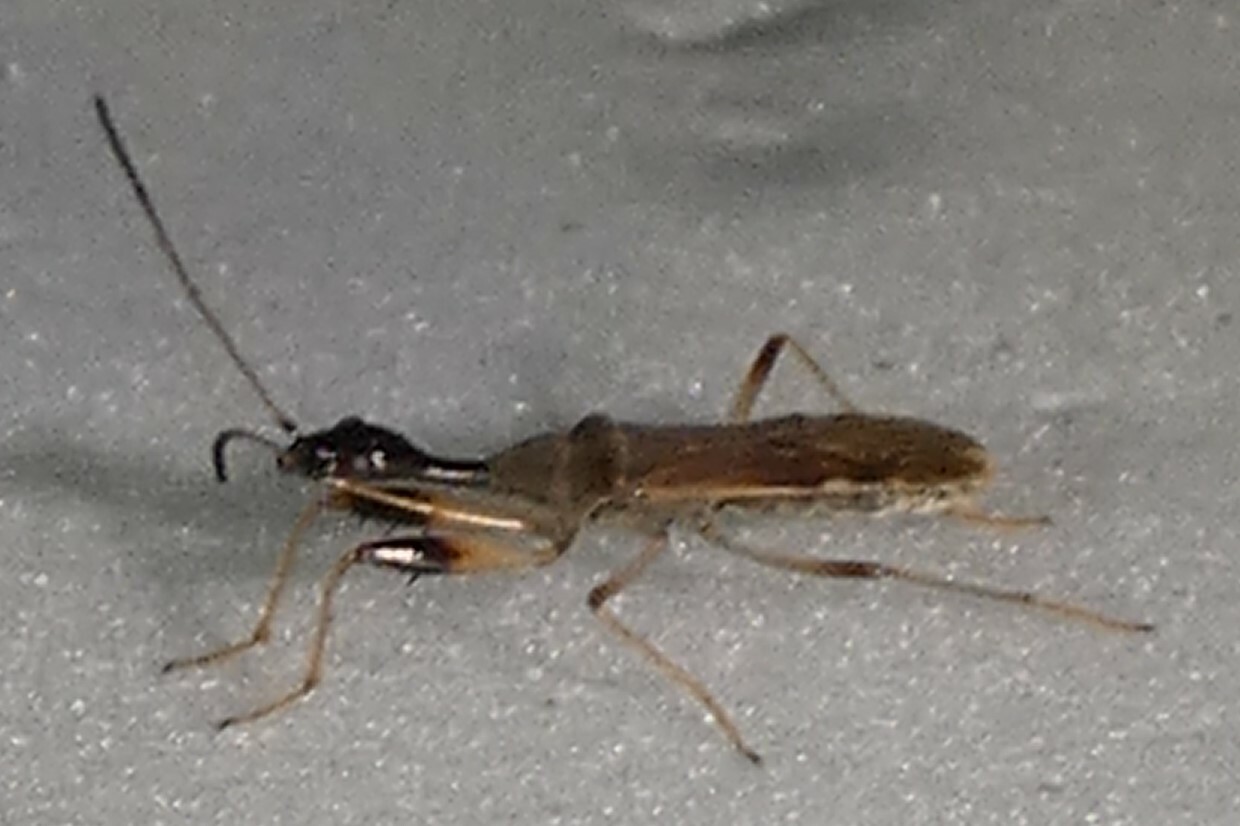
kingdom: Animalia
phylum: Arthropoda
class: Insecta
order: Hemiptera
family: Rhyparochromidae
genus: Myodocha
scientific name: Myodocha serripes
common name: Long-necked seed bug
